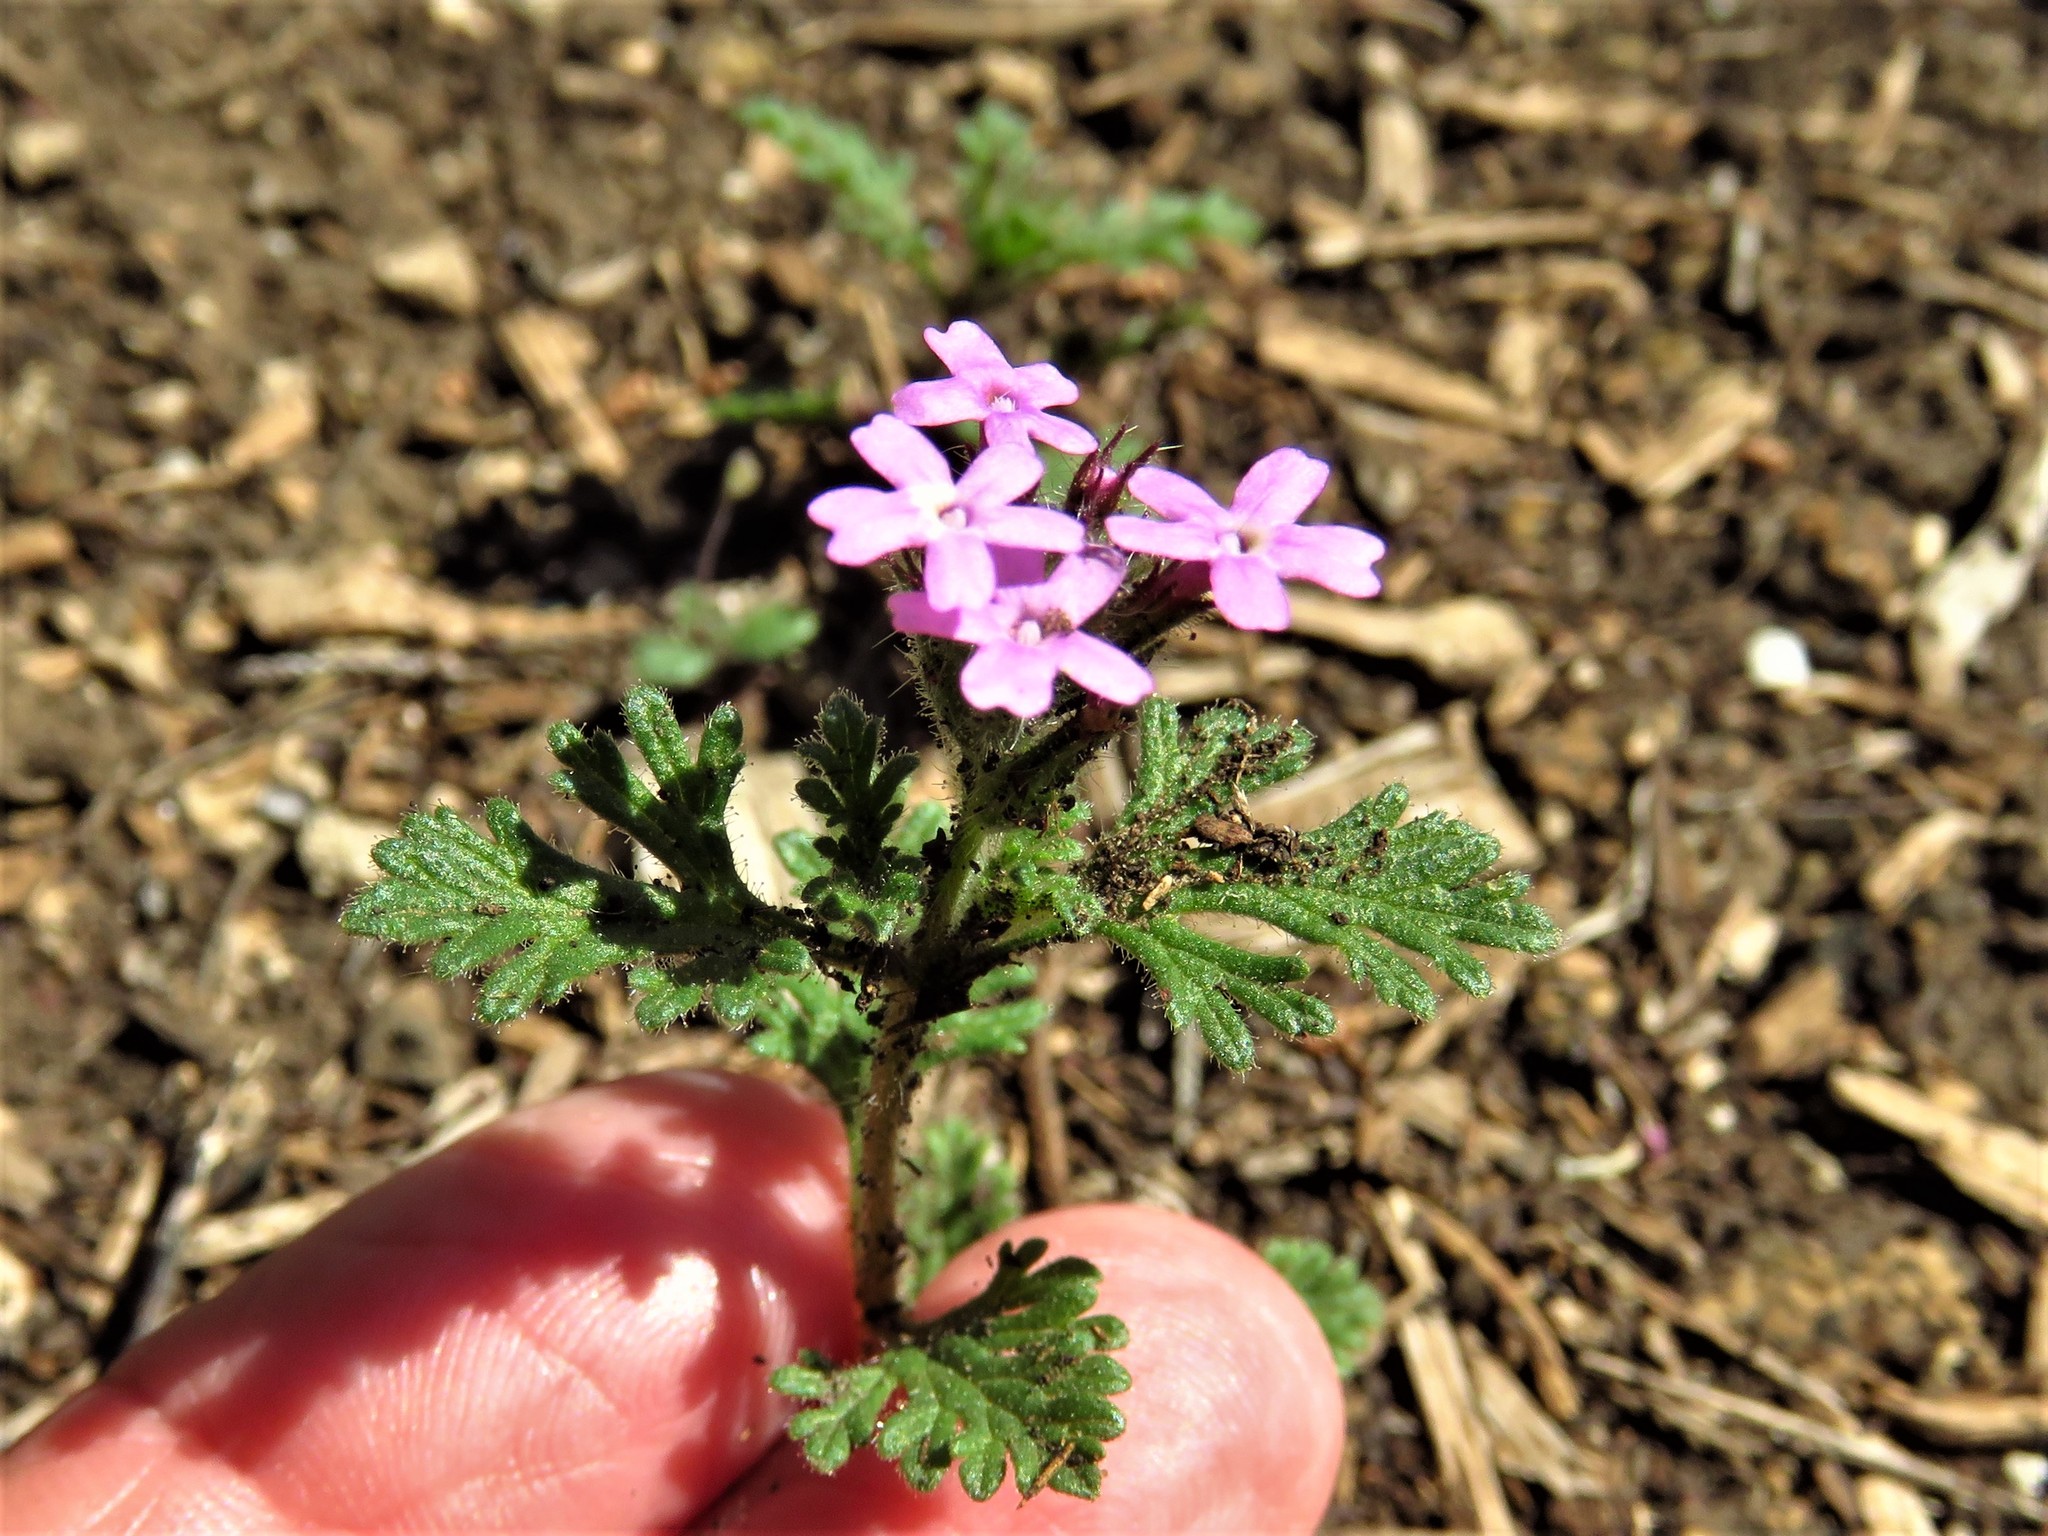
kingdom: Plantae
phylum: Tracheophyta
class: Magnoliopsida
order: Lamiales
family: Verbenaceae
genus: Verbena
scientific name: Verbena pumila
